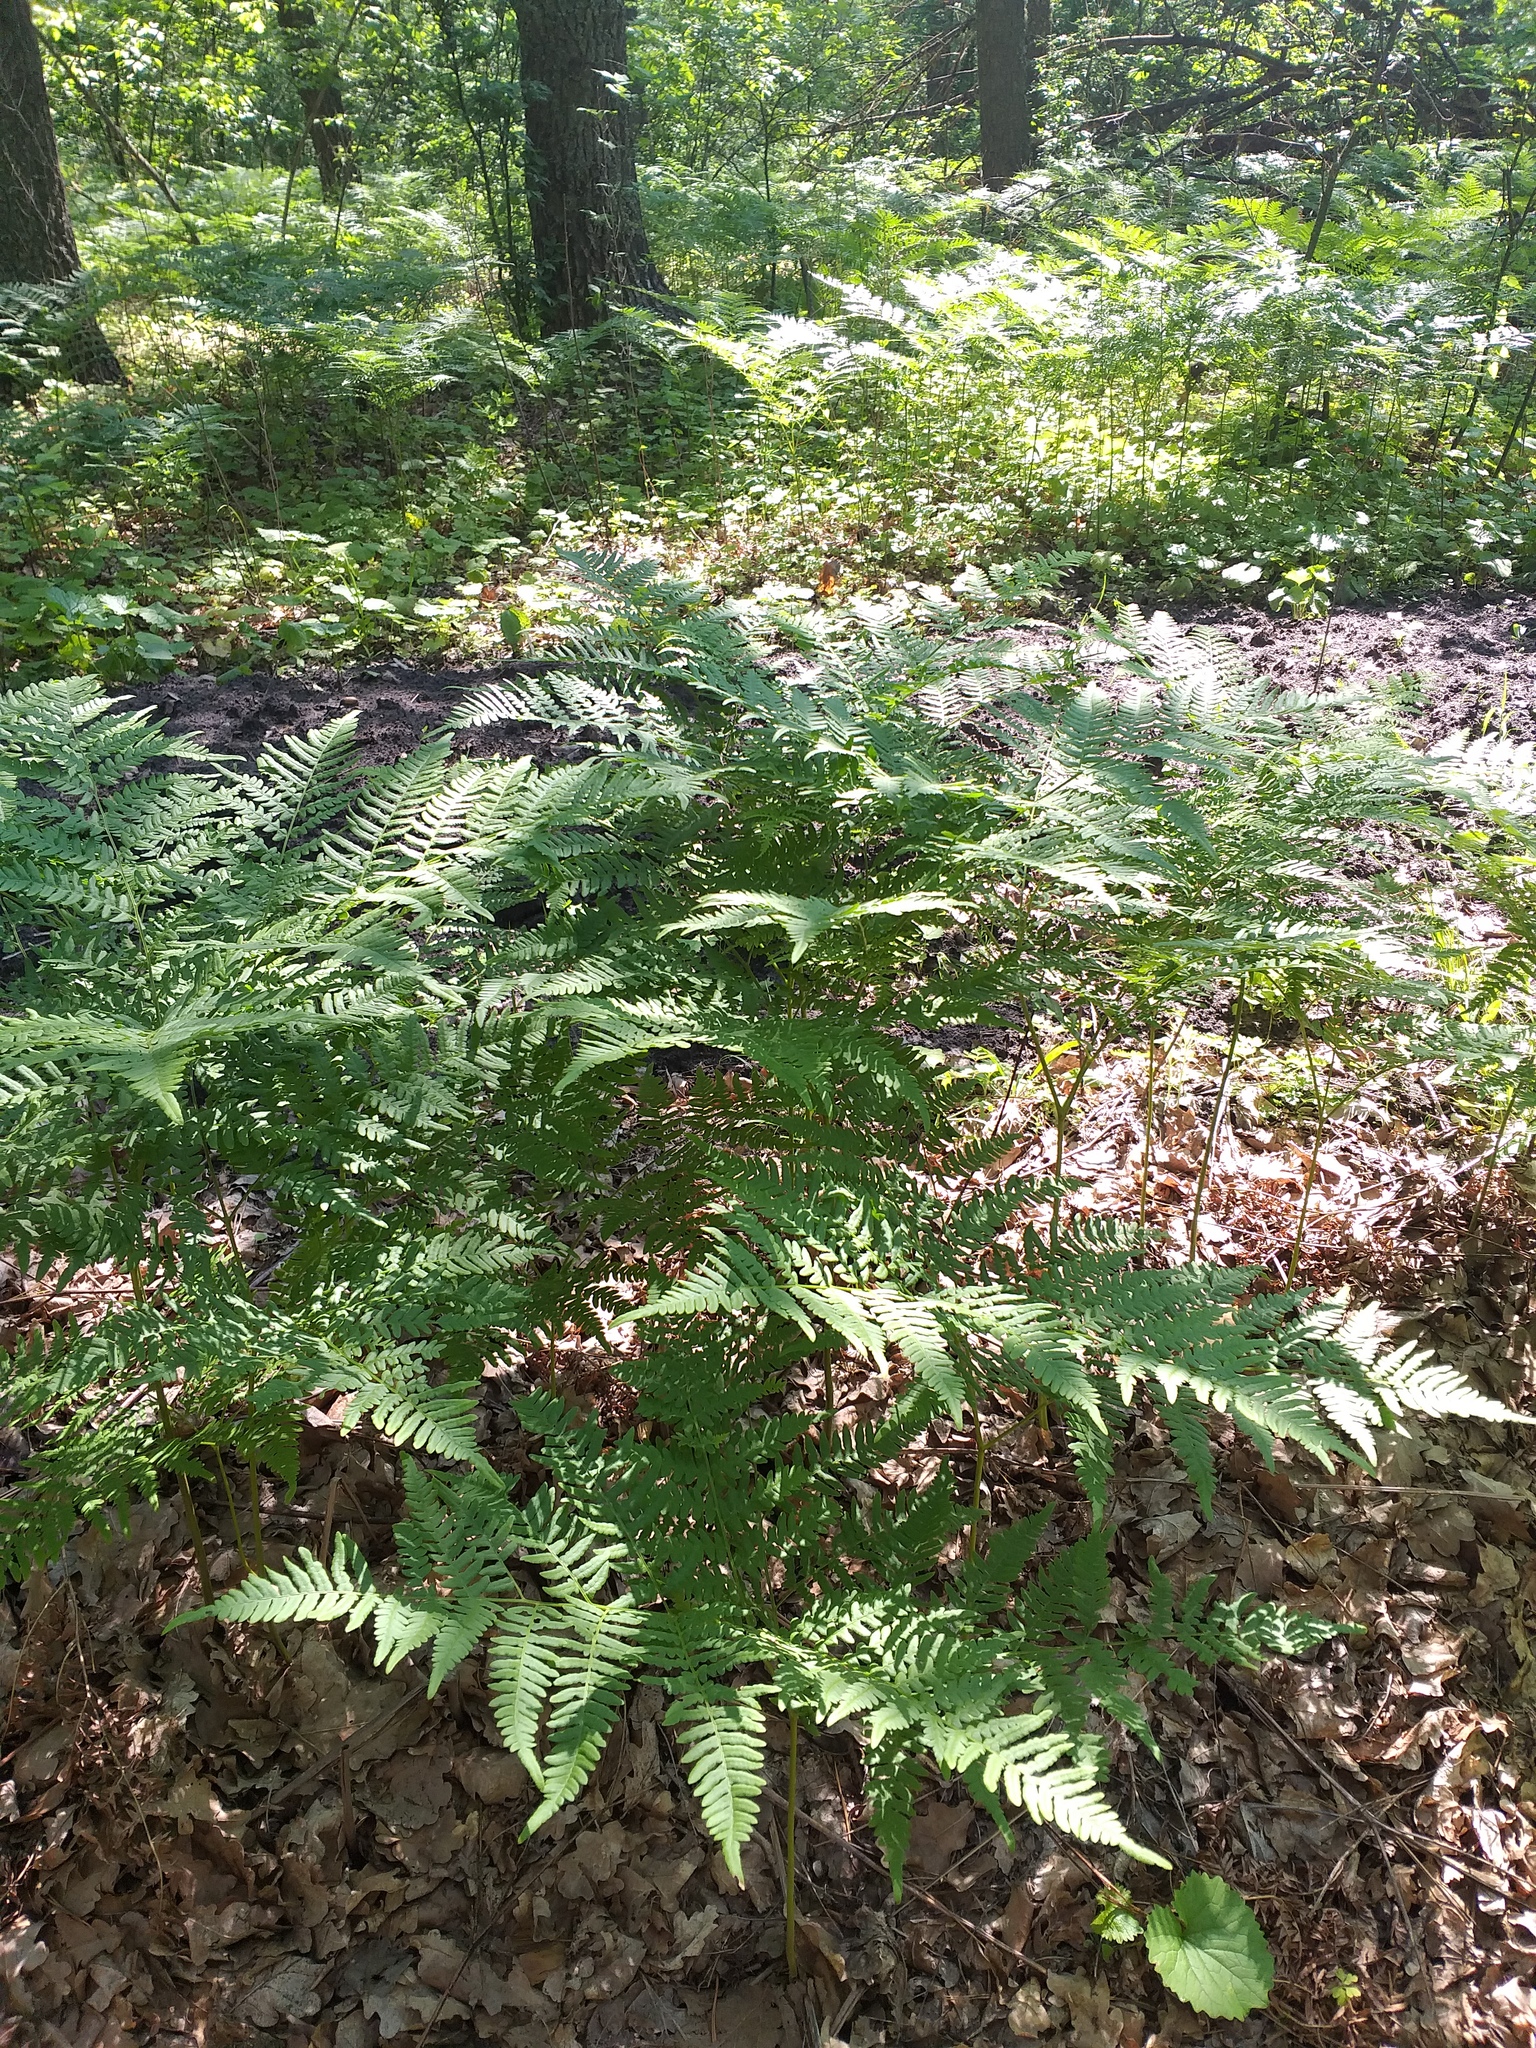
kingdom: Plantae
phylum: Tracheophyta
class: Polypodiopsida
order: Polypodiales
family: Dennstaedtiaceae
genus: Pteridium
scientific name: Pteridium aquilinum
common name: Bracken
